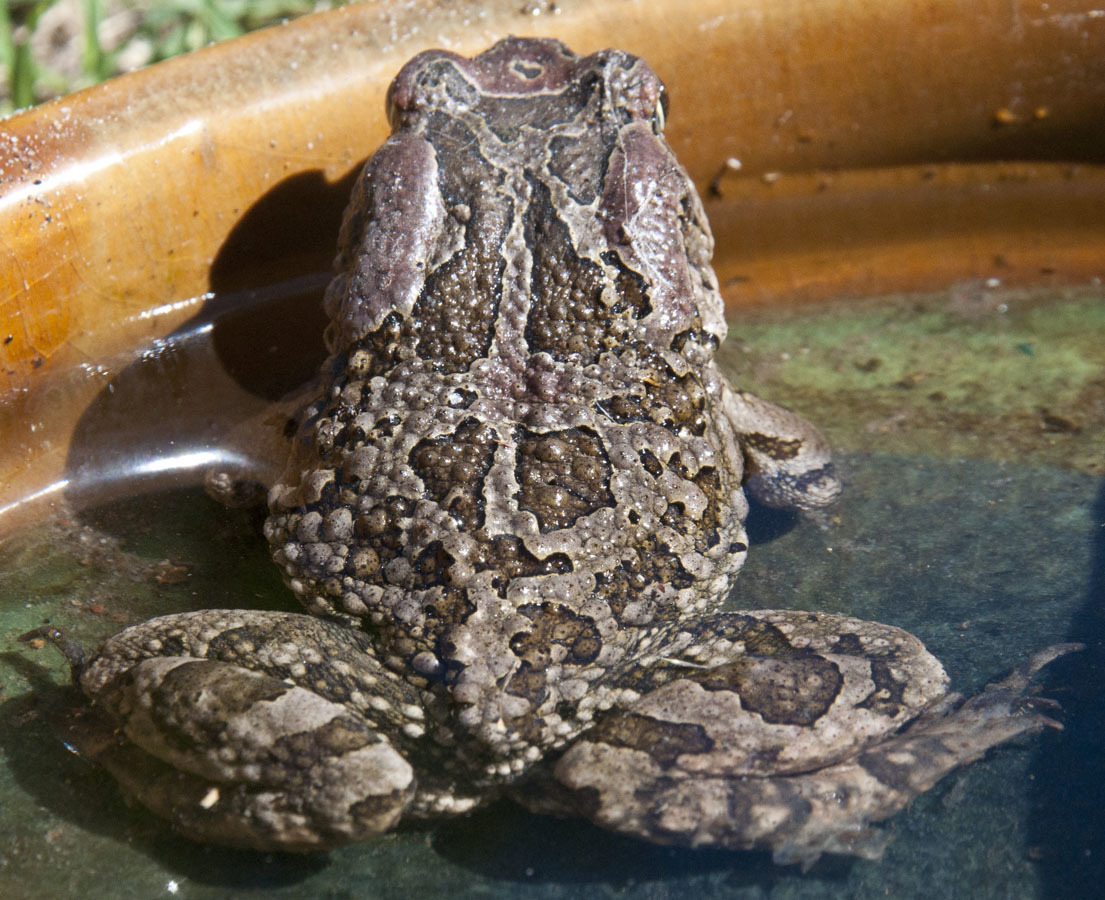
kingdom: Animalia
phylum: Chordata
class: Amphibia
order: Anura
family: Bufonidae
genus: Sclerophrys
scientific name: Sclerophrys capensis
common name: Ranger’s toad
